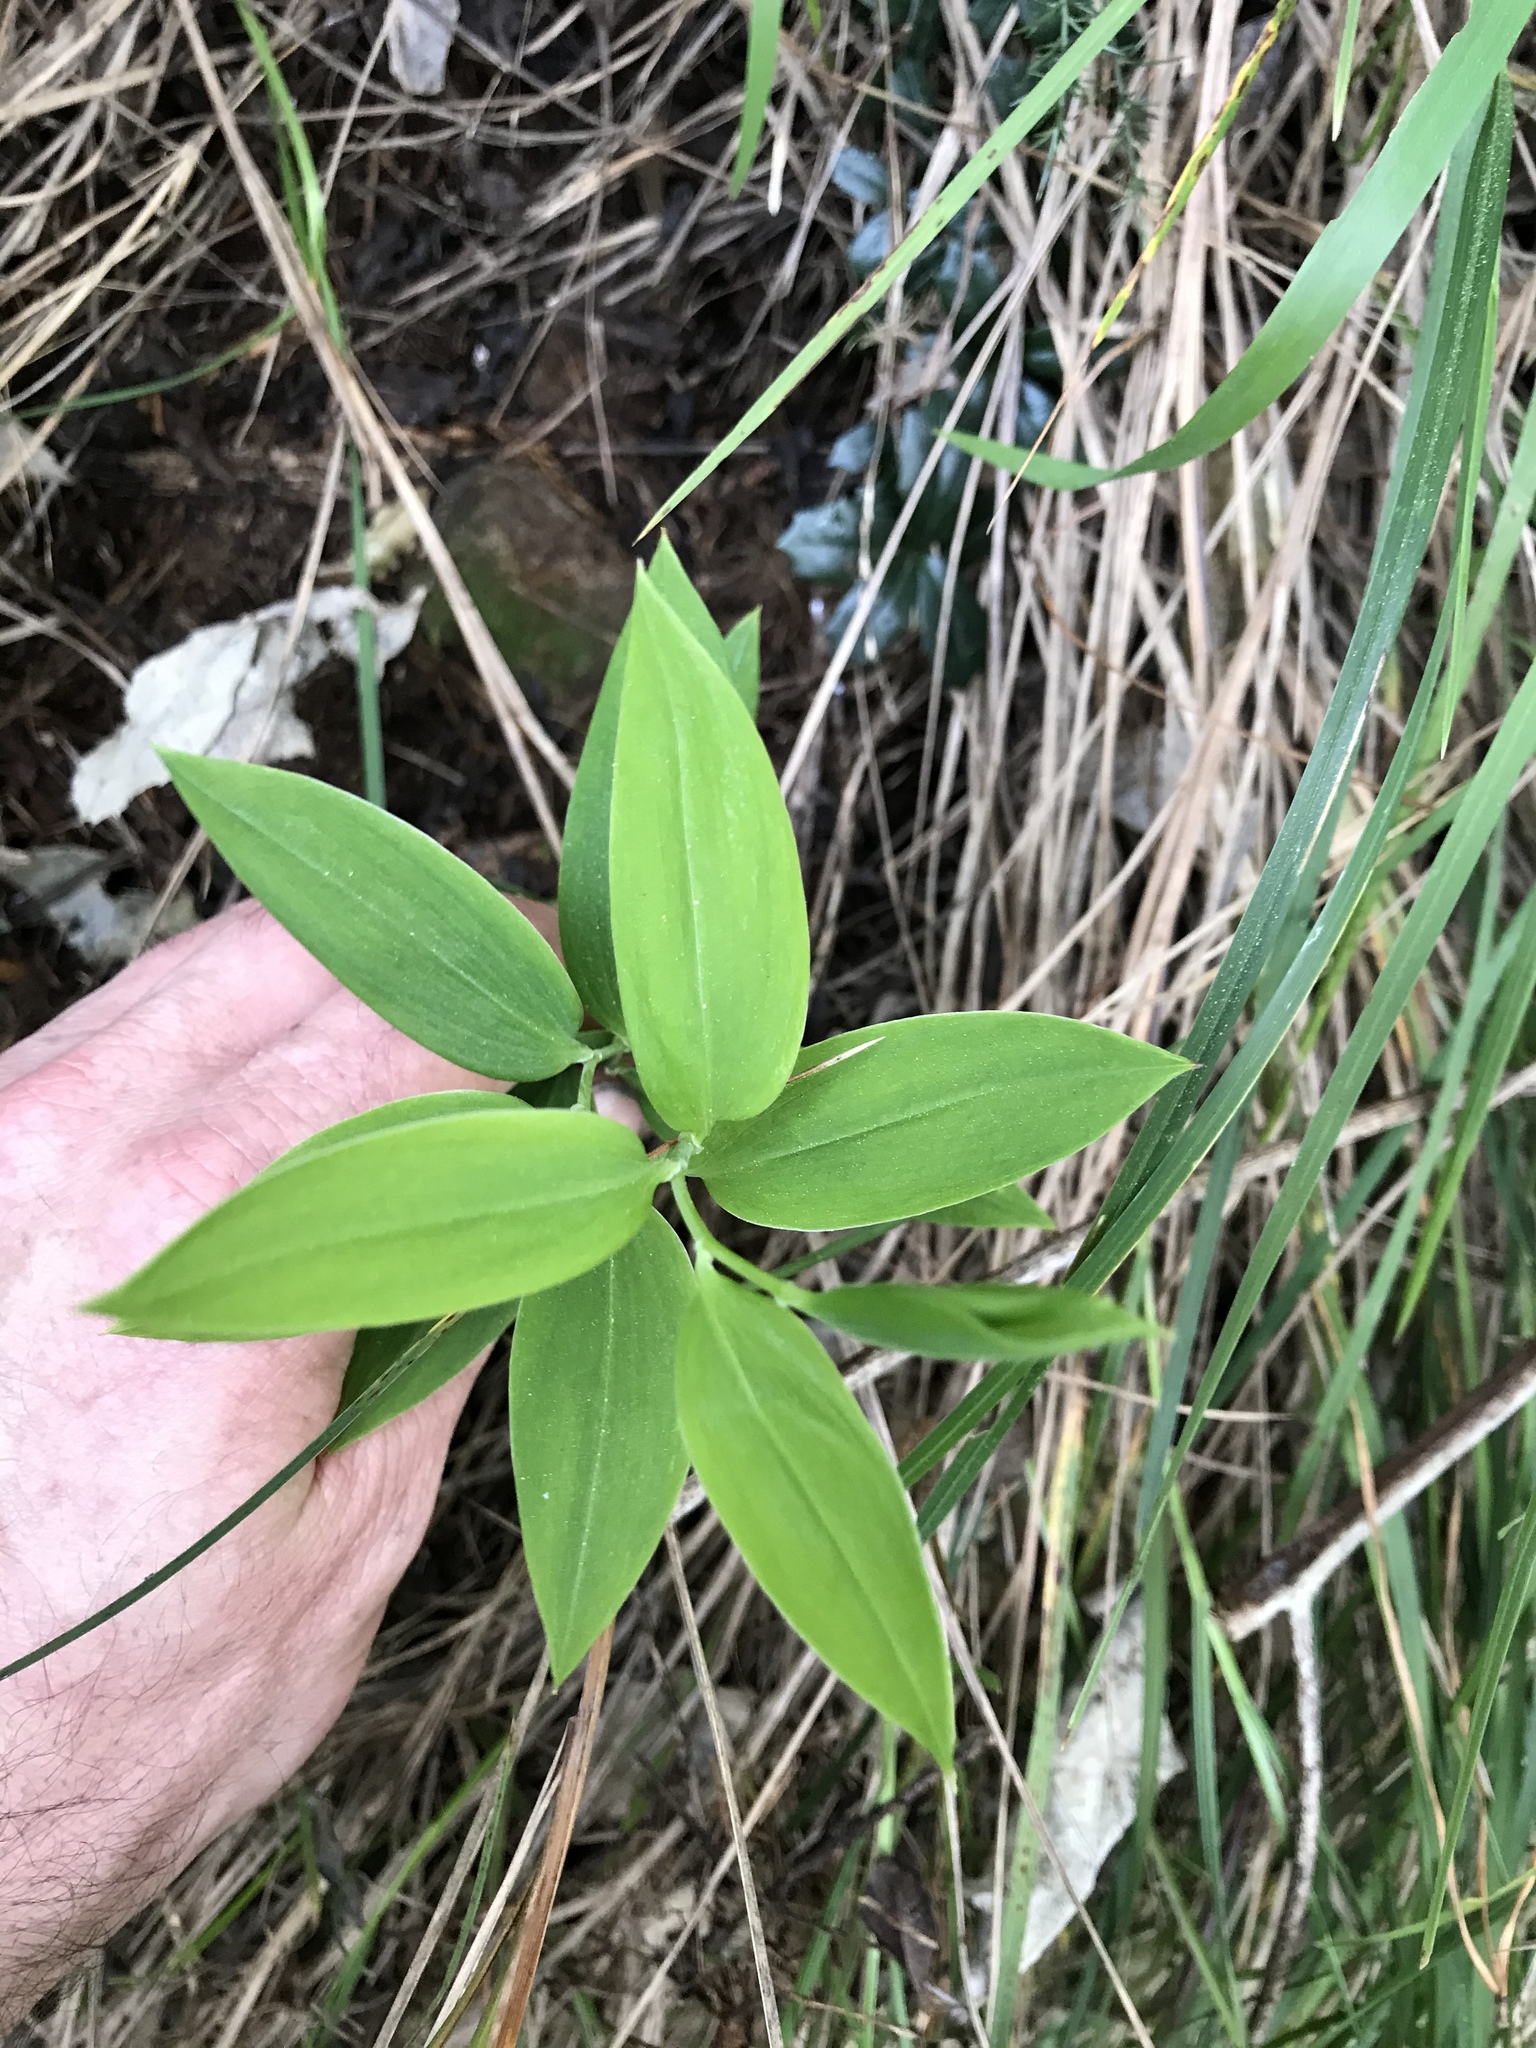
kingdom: Plantae
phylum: Tracheophyta
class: Liliopsida
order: Liliales
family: Alstroemeriaceae
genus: Bomarea
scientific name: Bomarea multiflora
